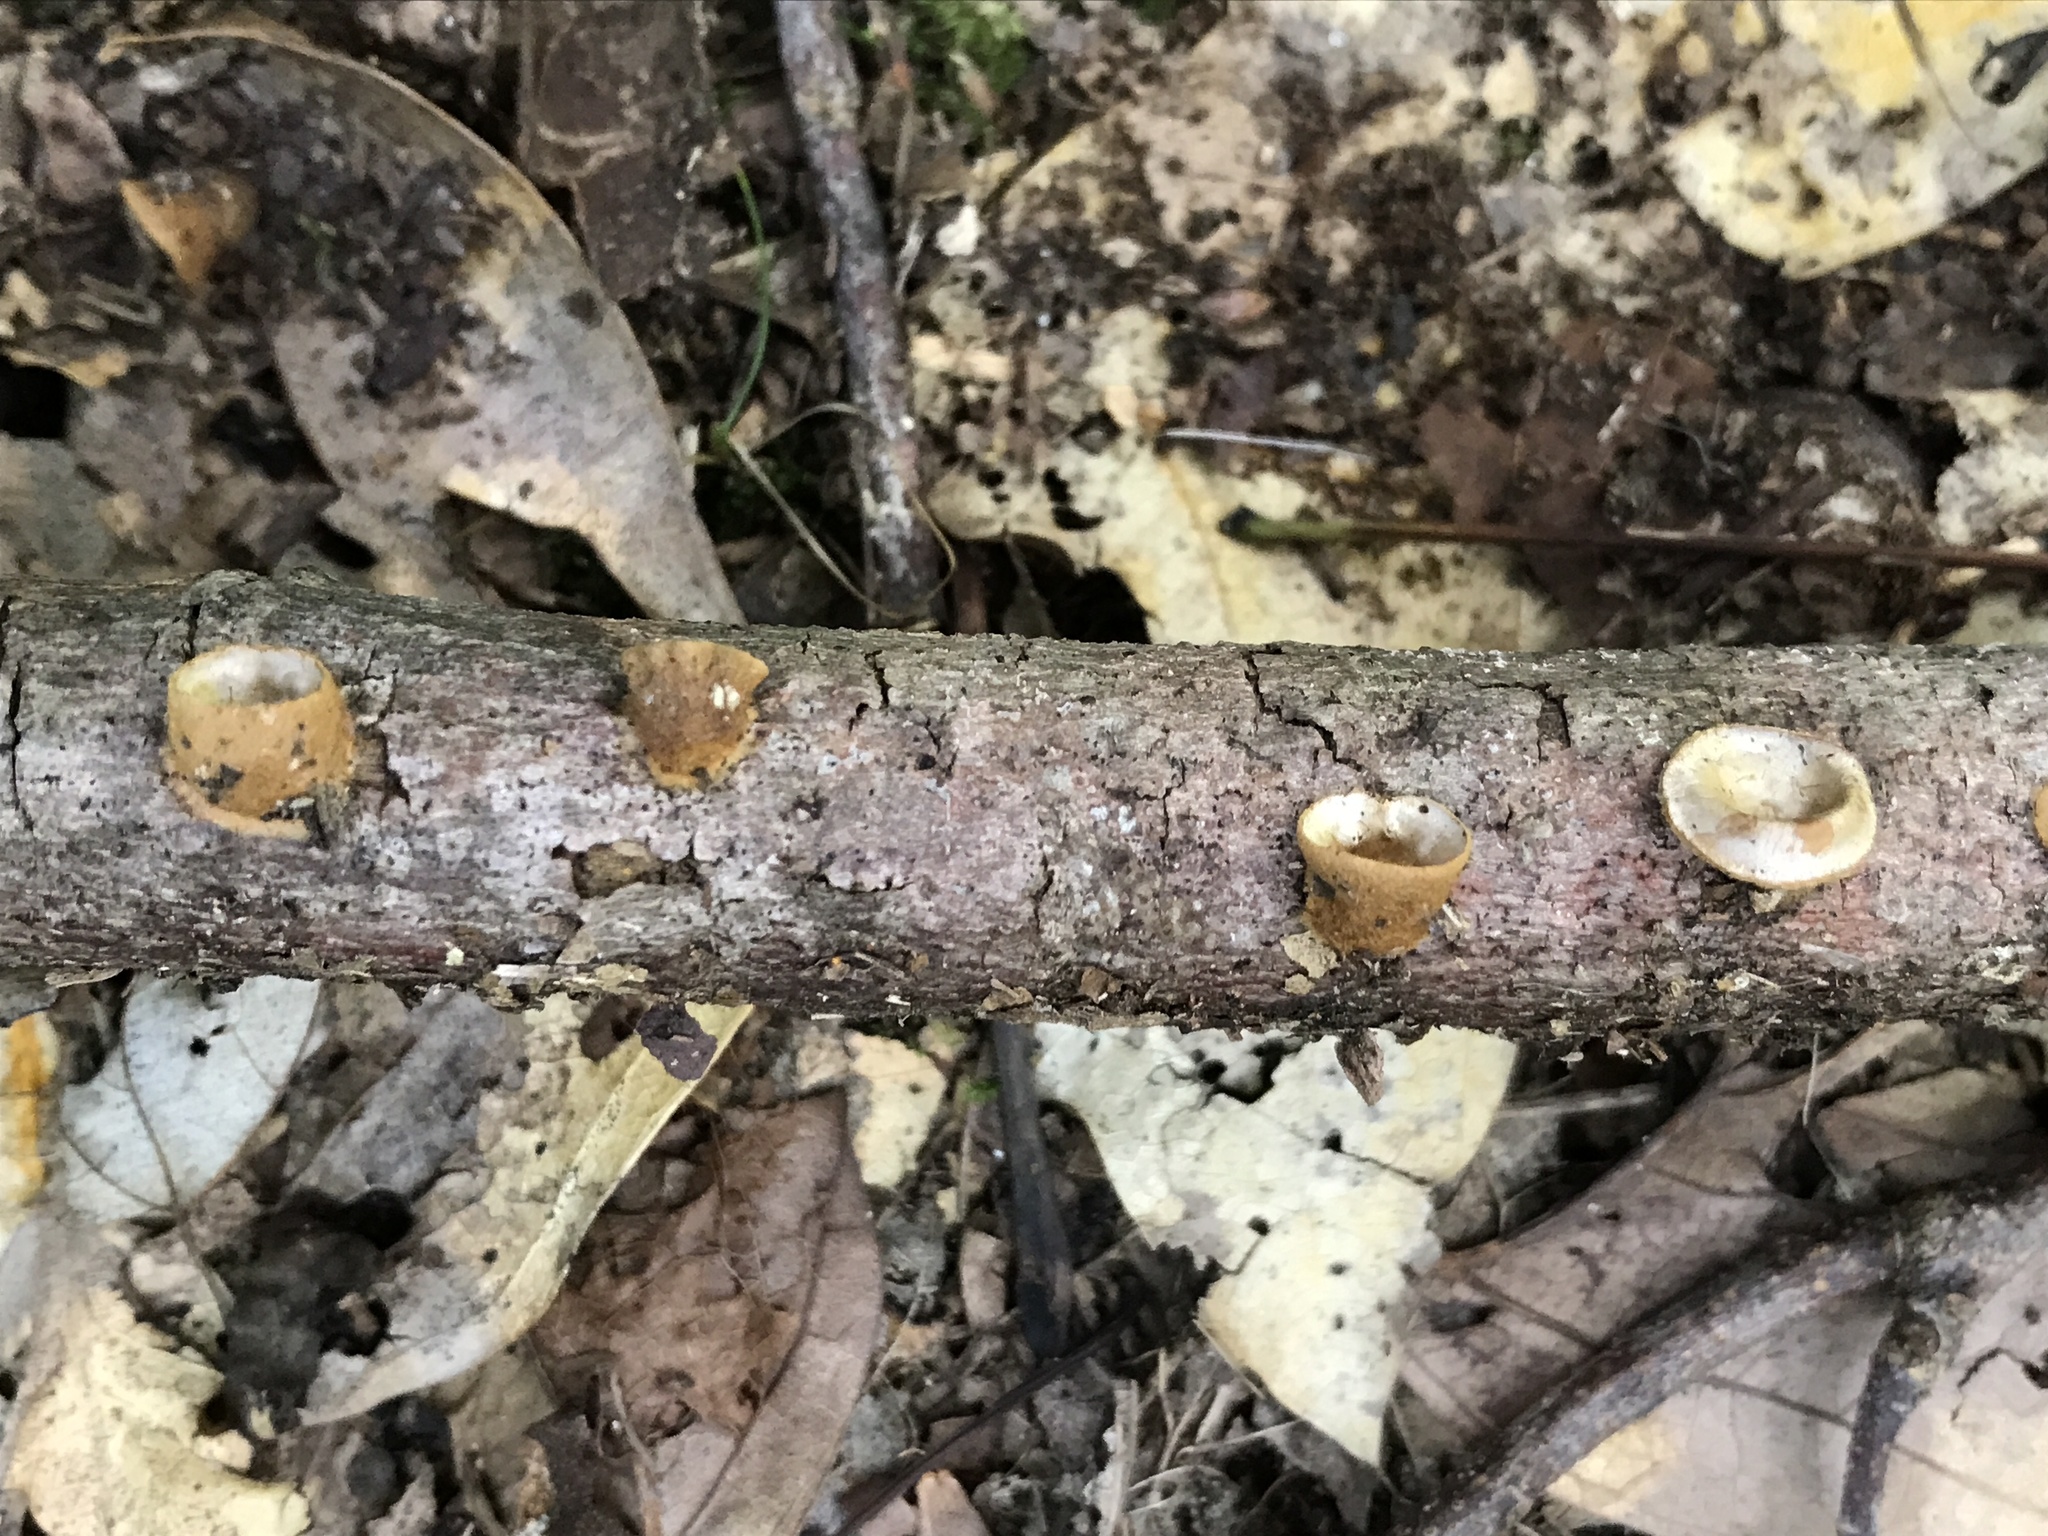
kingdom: Fungi
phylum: Basidiomycota
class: Agaricomycetes
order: Agaricales
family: Nidulariaceae
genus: Crucibulum
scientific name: Crucibulum laeve
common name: Common bird's nest
